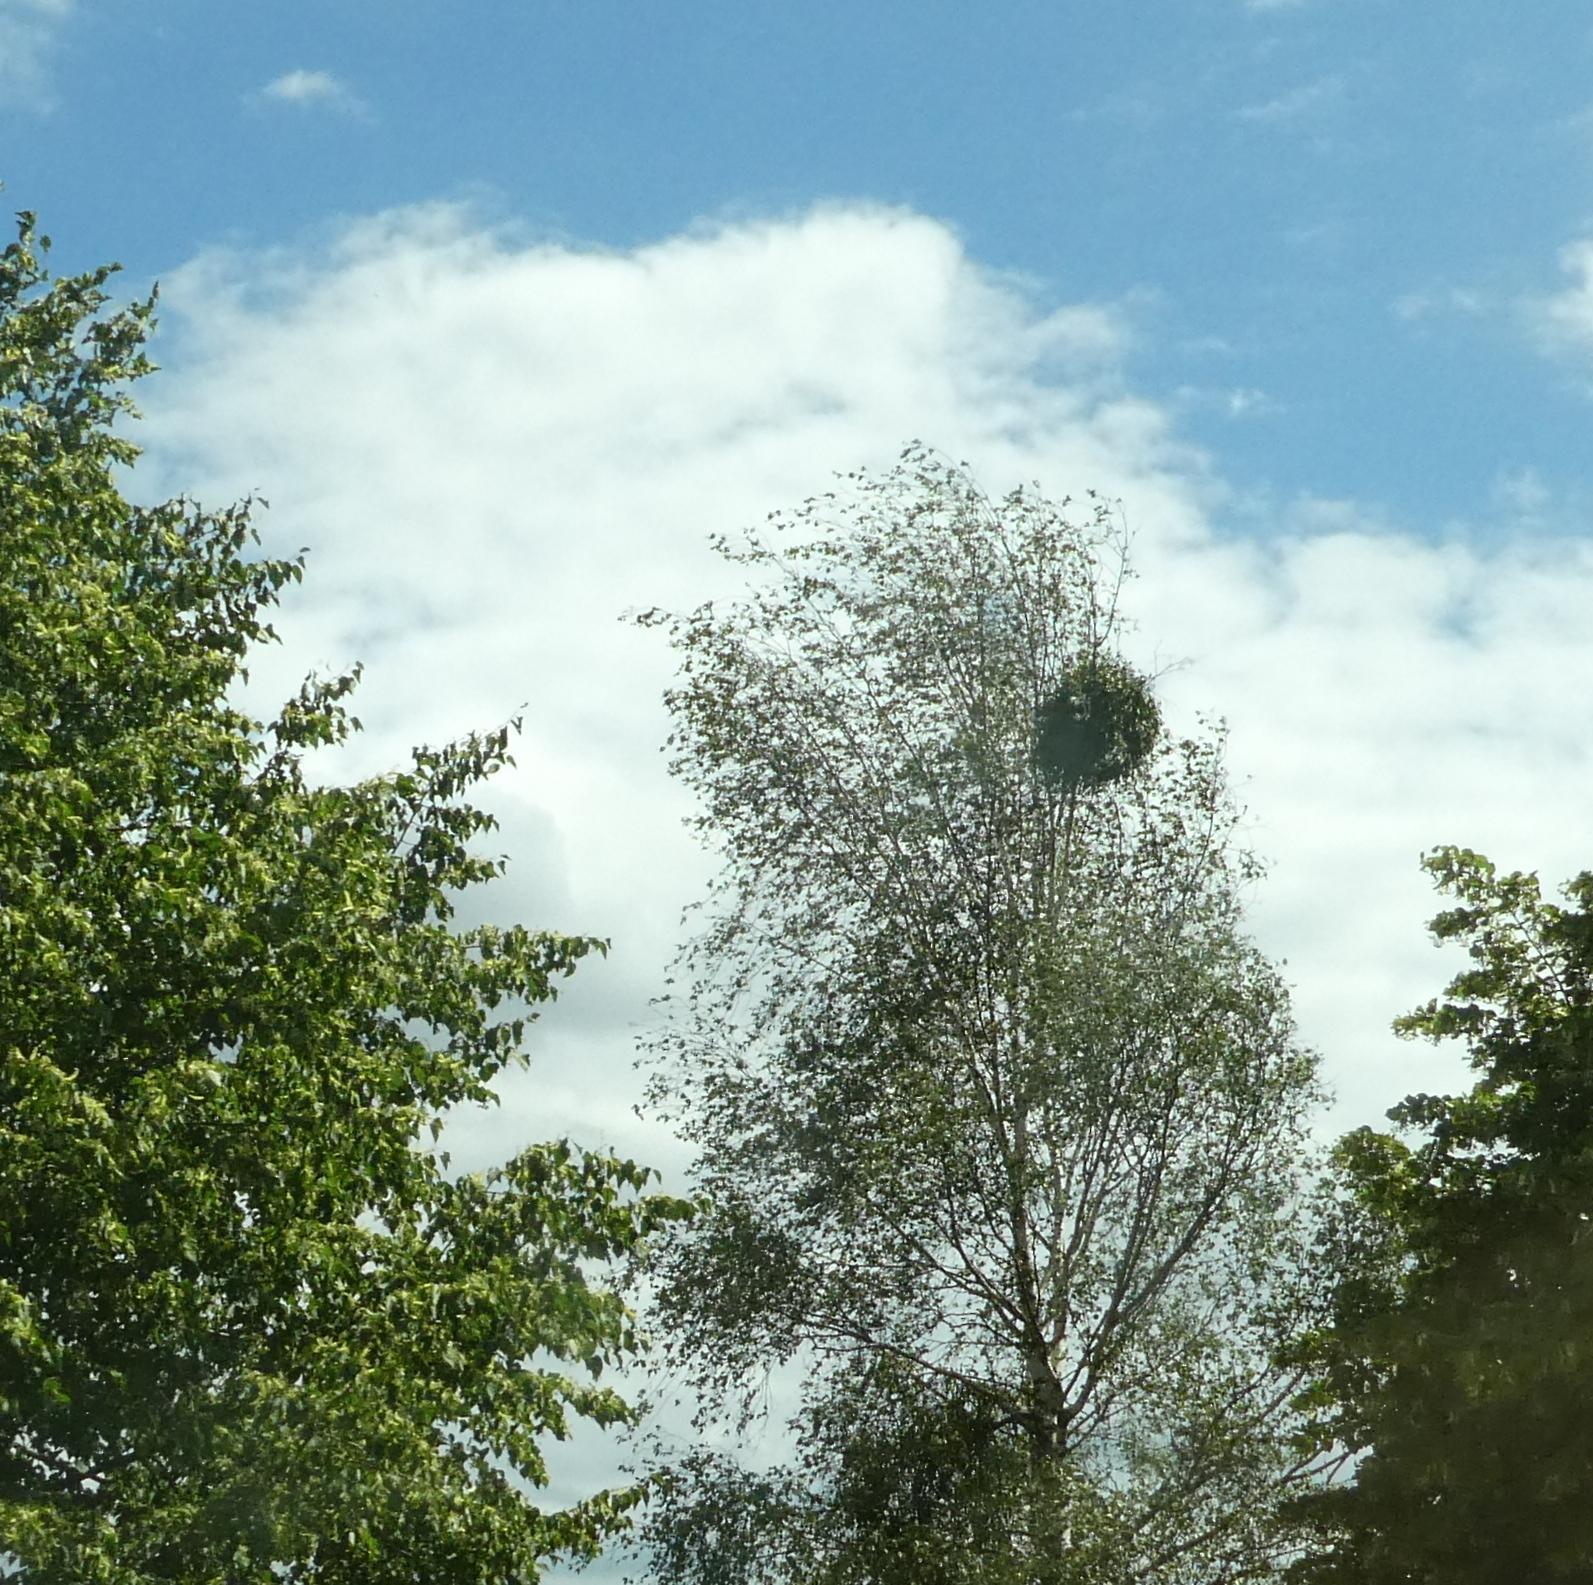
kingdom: Plantae
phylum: Tracheophyta
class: Magnoliopsida
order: Santalales
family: Viscaceae
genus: Viscum
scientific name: Viscum album
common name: Mistletoe
